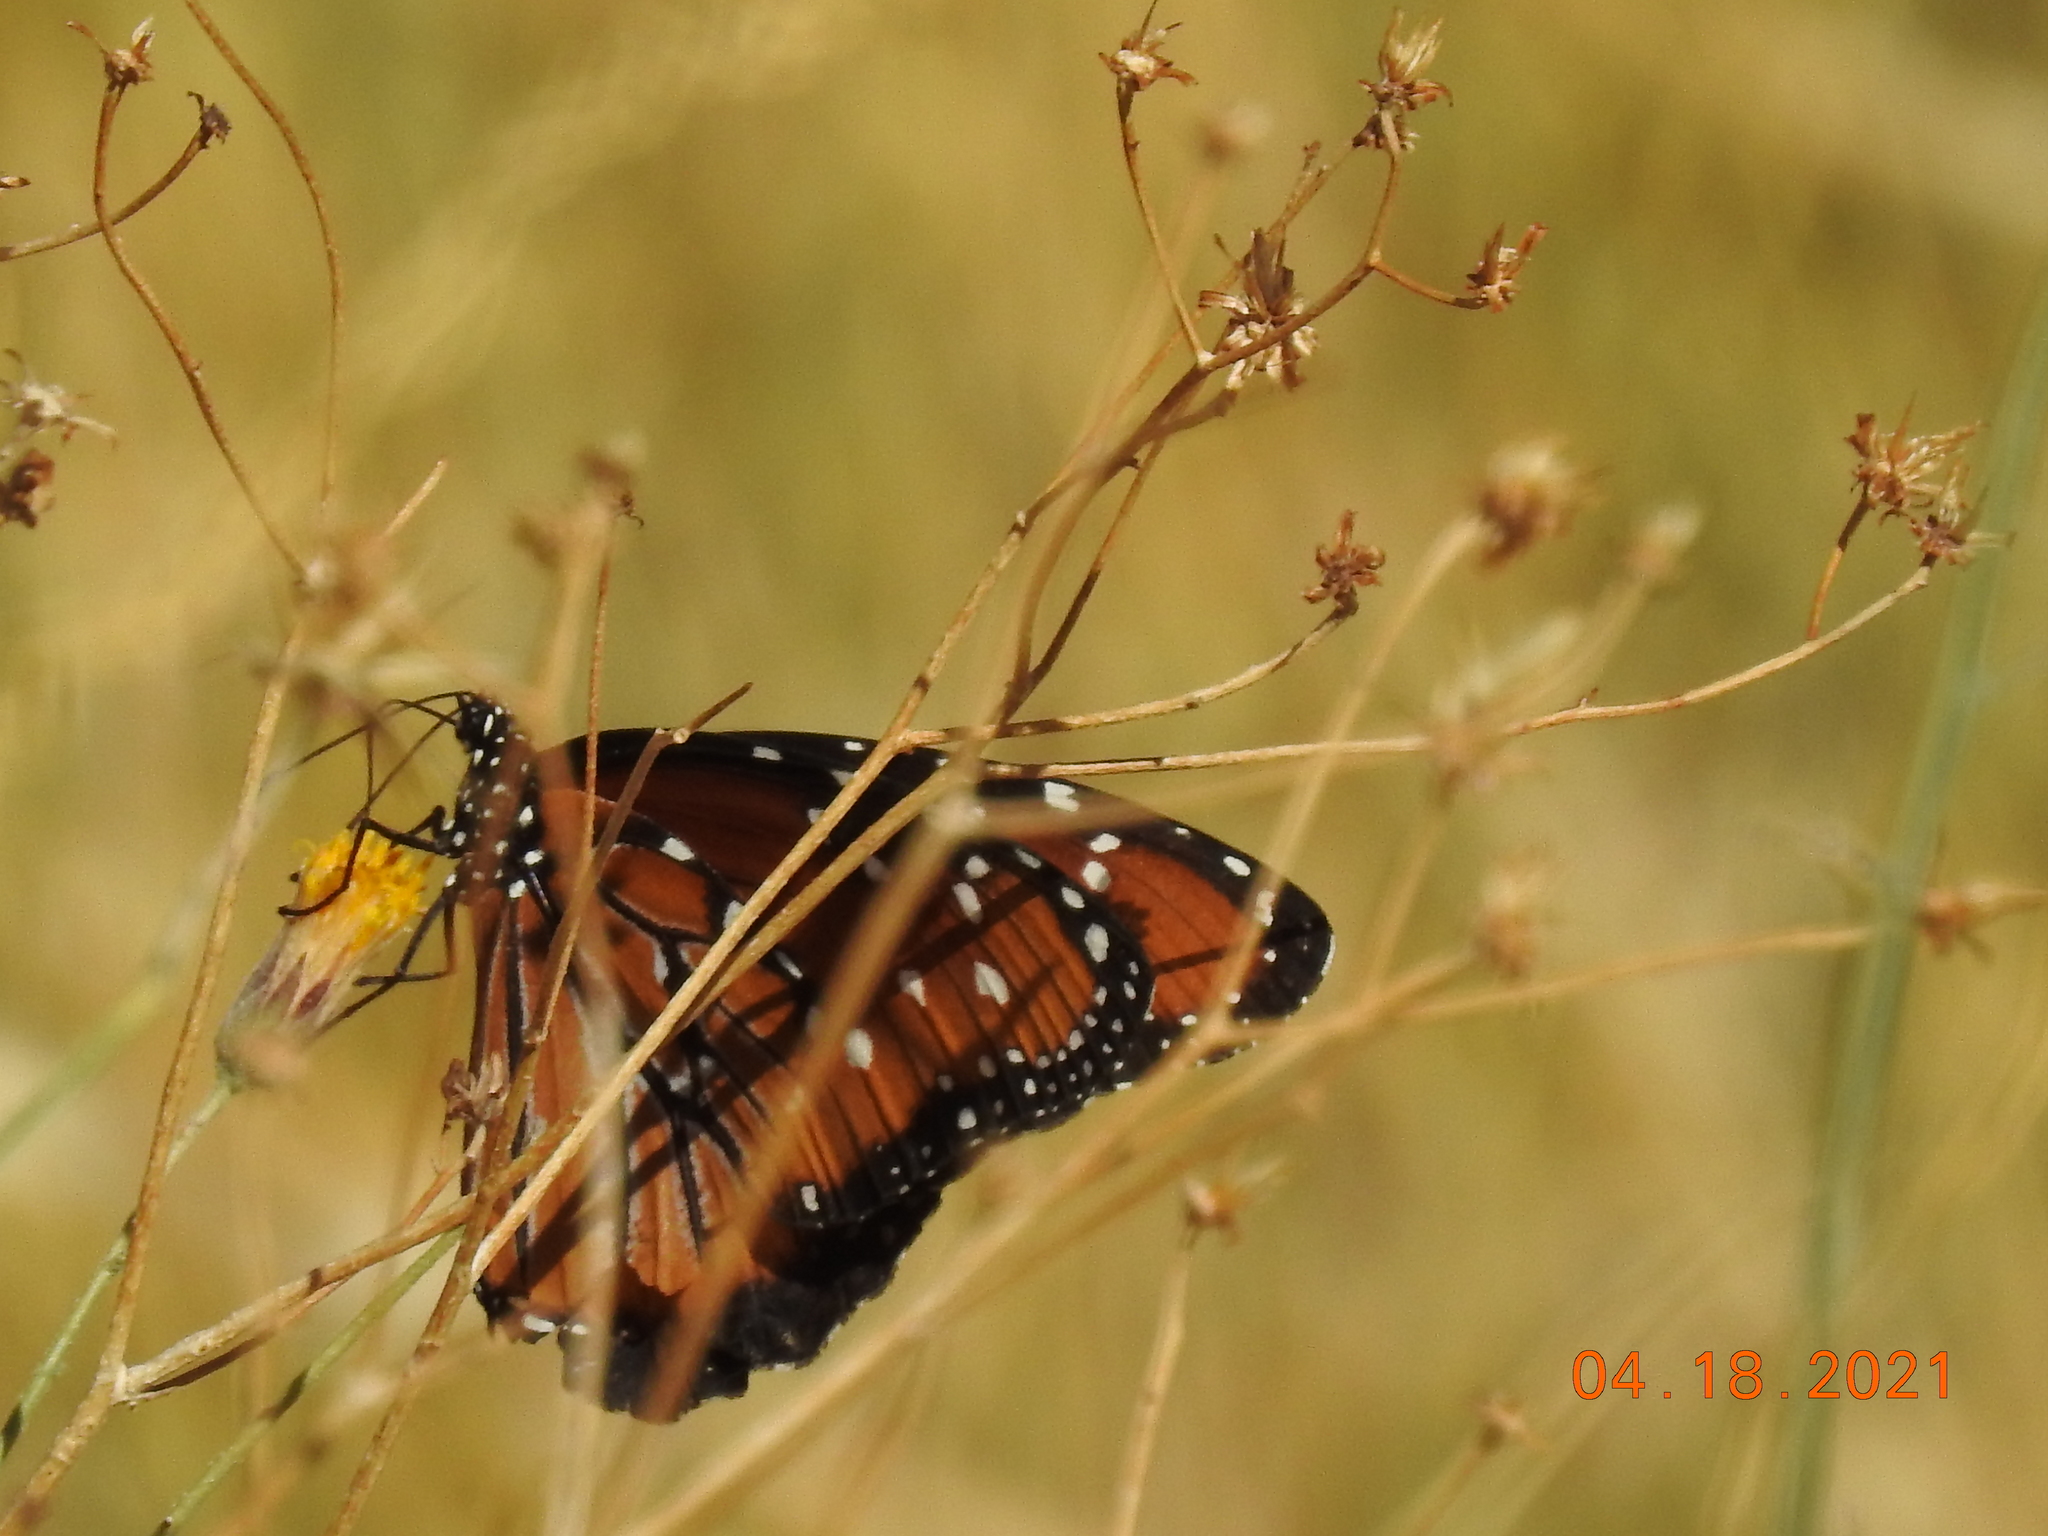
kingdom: Animalia
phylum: Arthropoda
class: Insecta
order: Lepidoptera
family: Nymphalidae
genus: Danaus
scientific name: Danaus gilippus
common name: Queen
